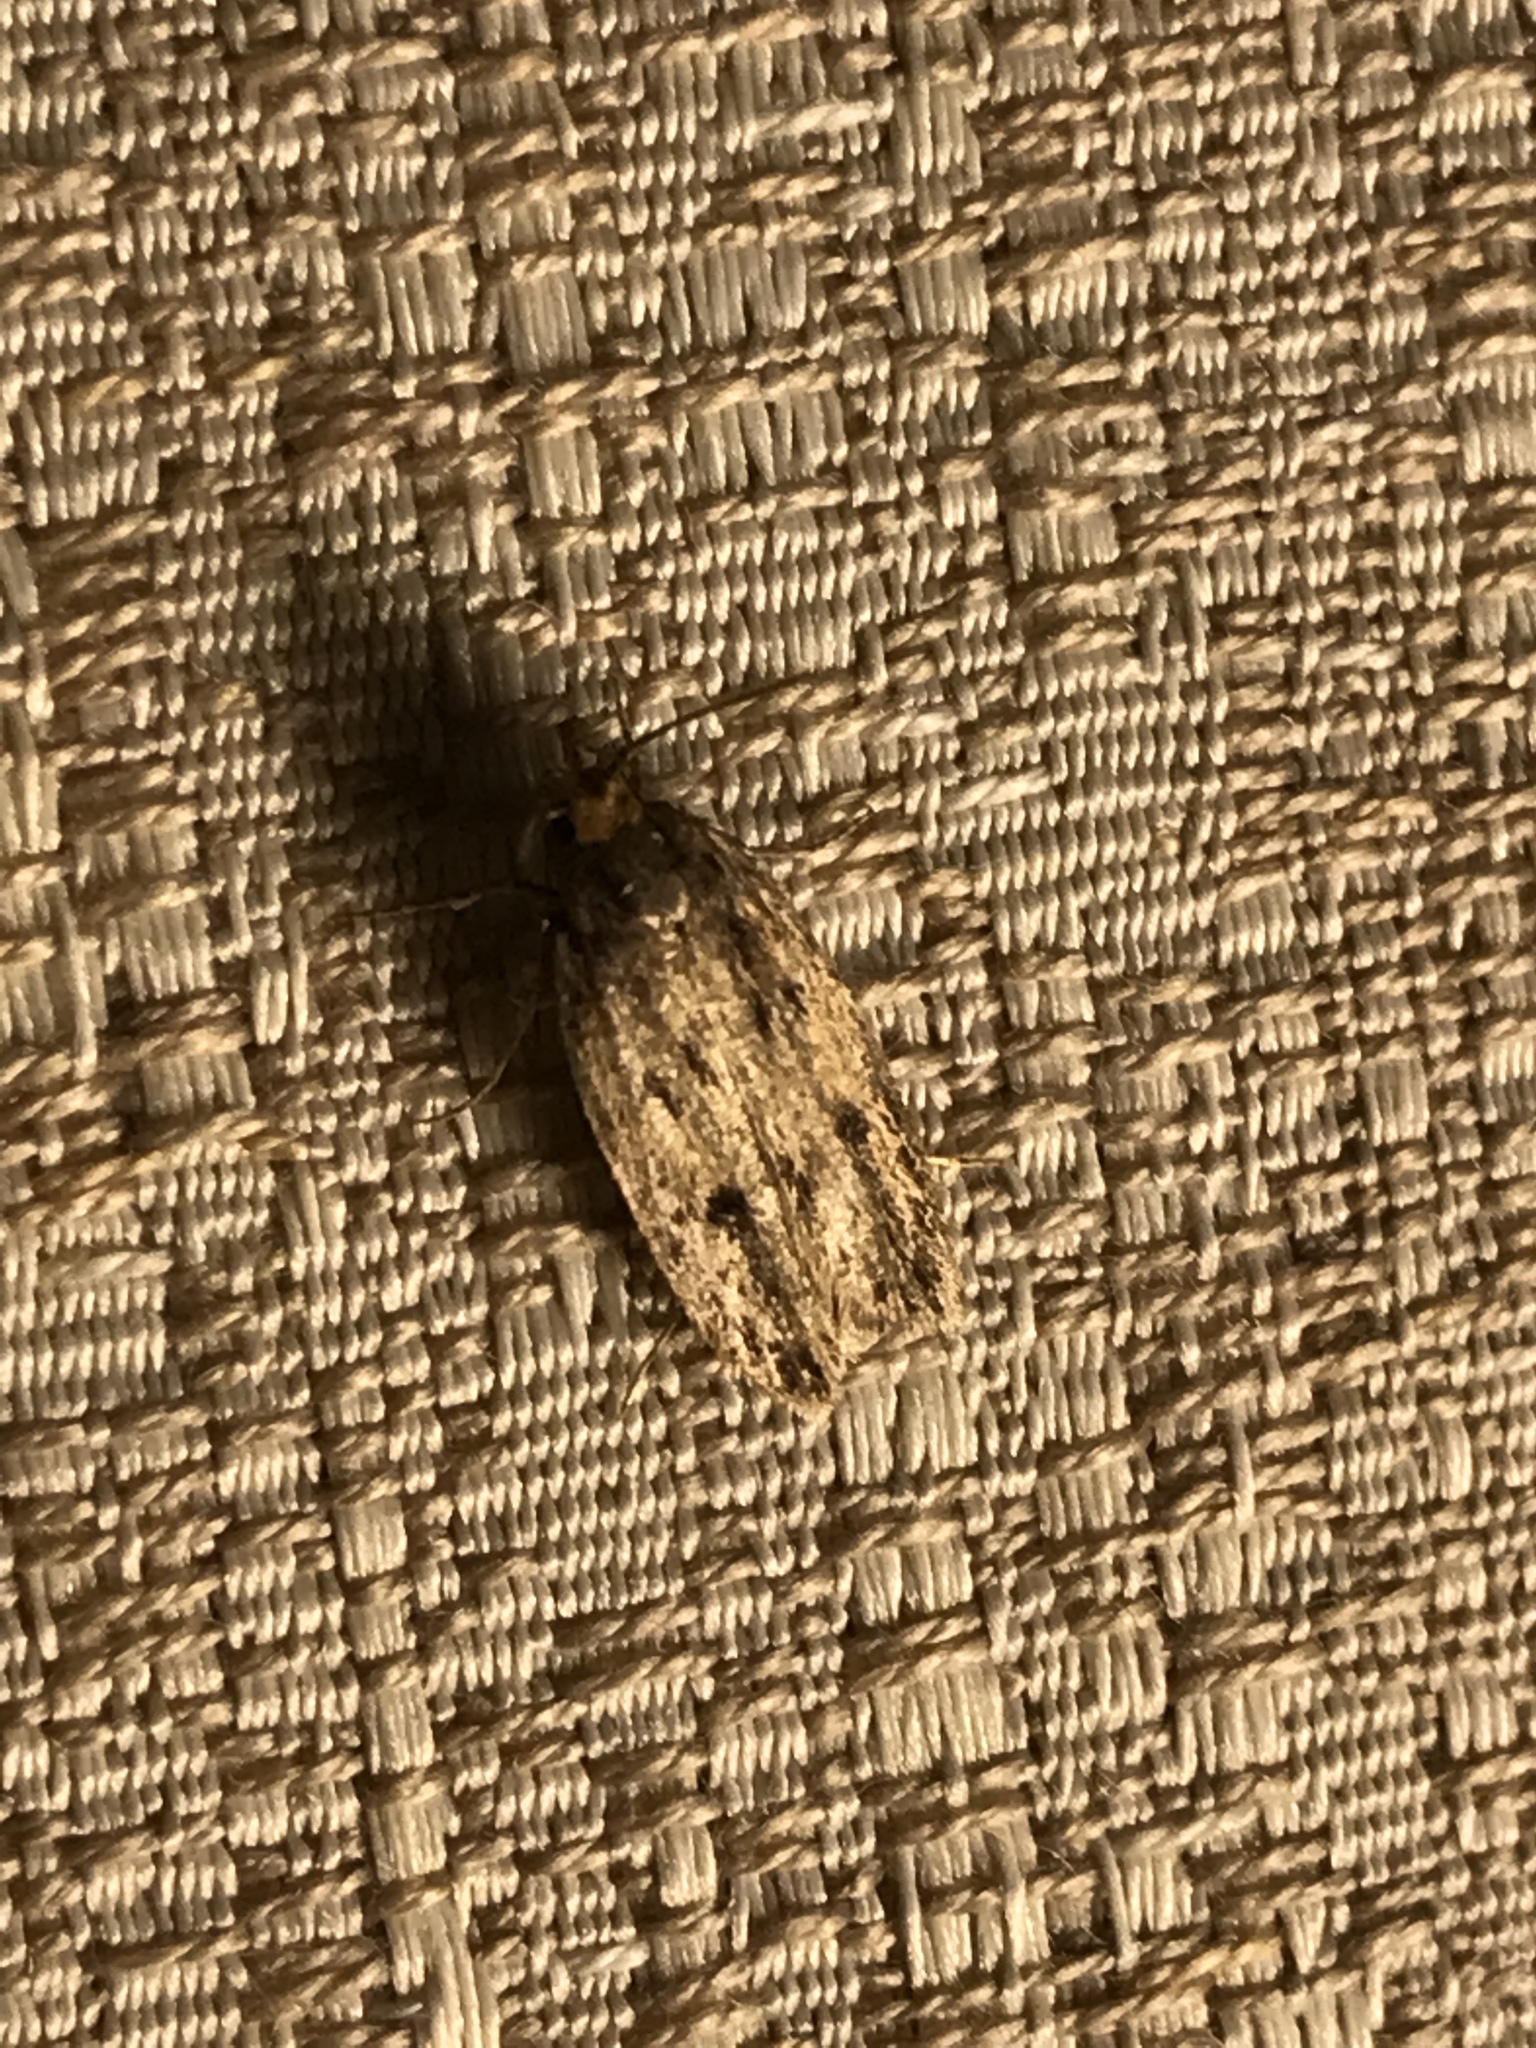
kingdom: Animalia
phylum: Arthropoda
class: Insecta
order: Lepidoptera
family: Oecophoridae
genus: Hofmannophila
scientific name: Hofmannophila pseudospretella
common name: Brown house moth
